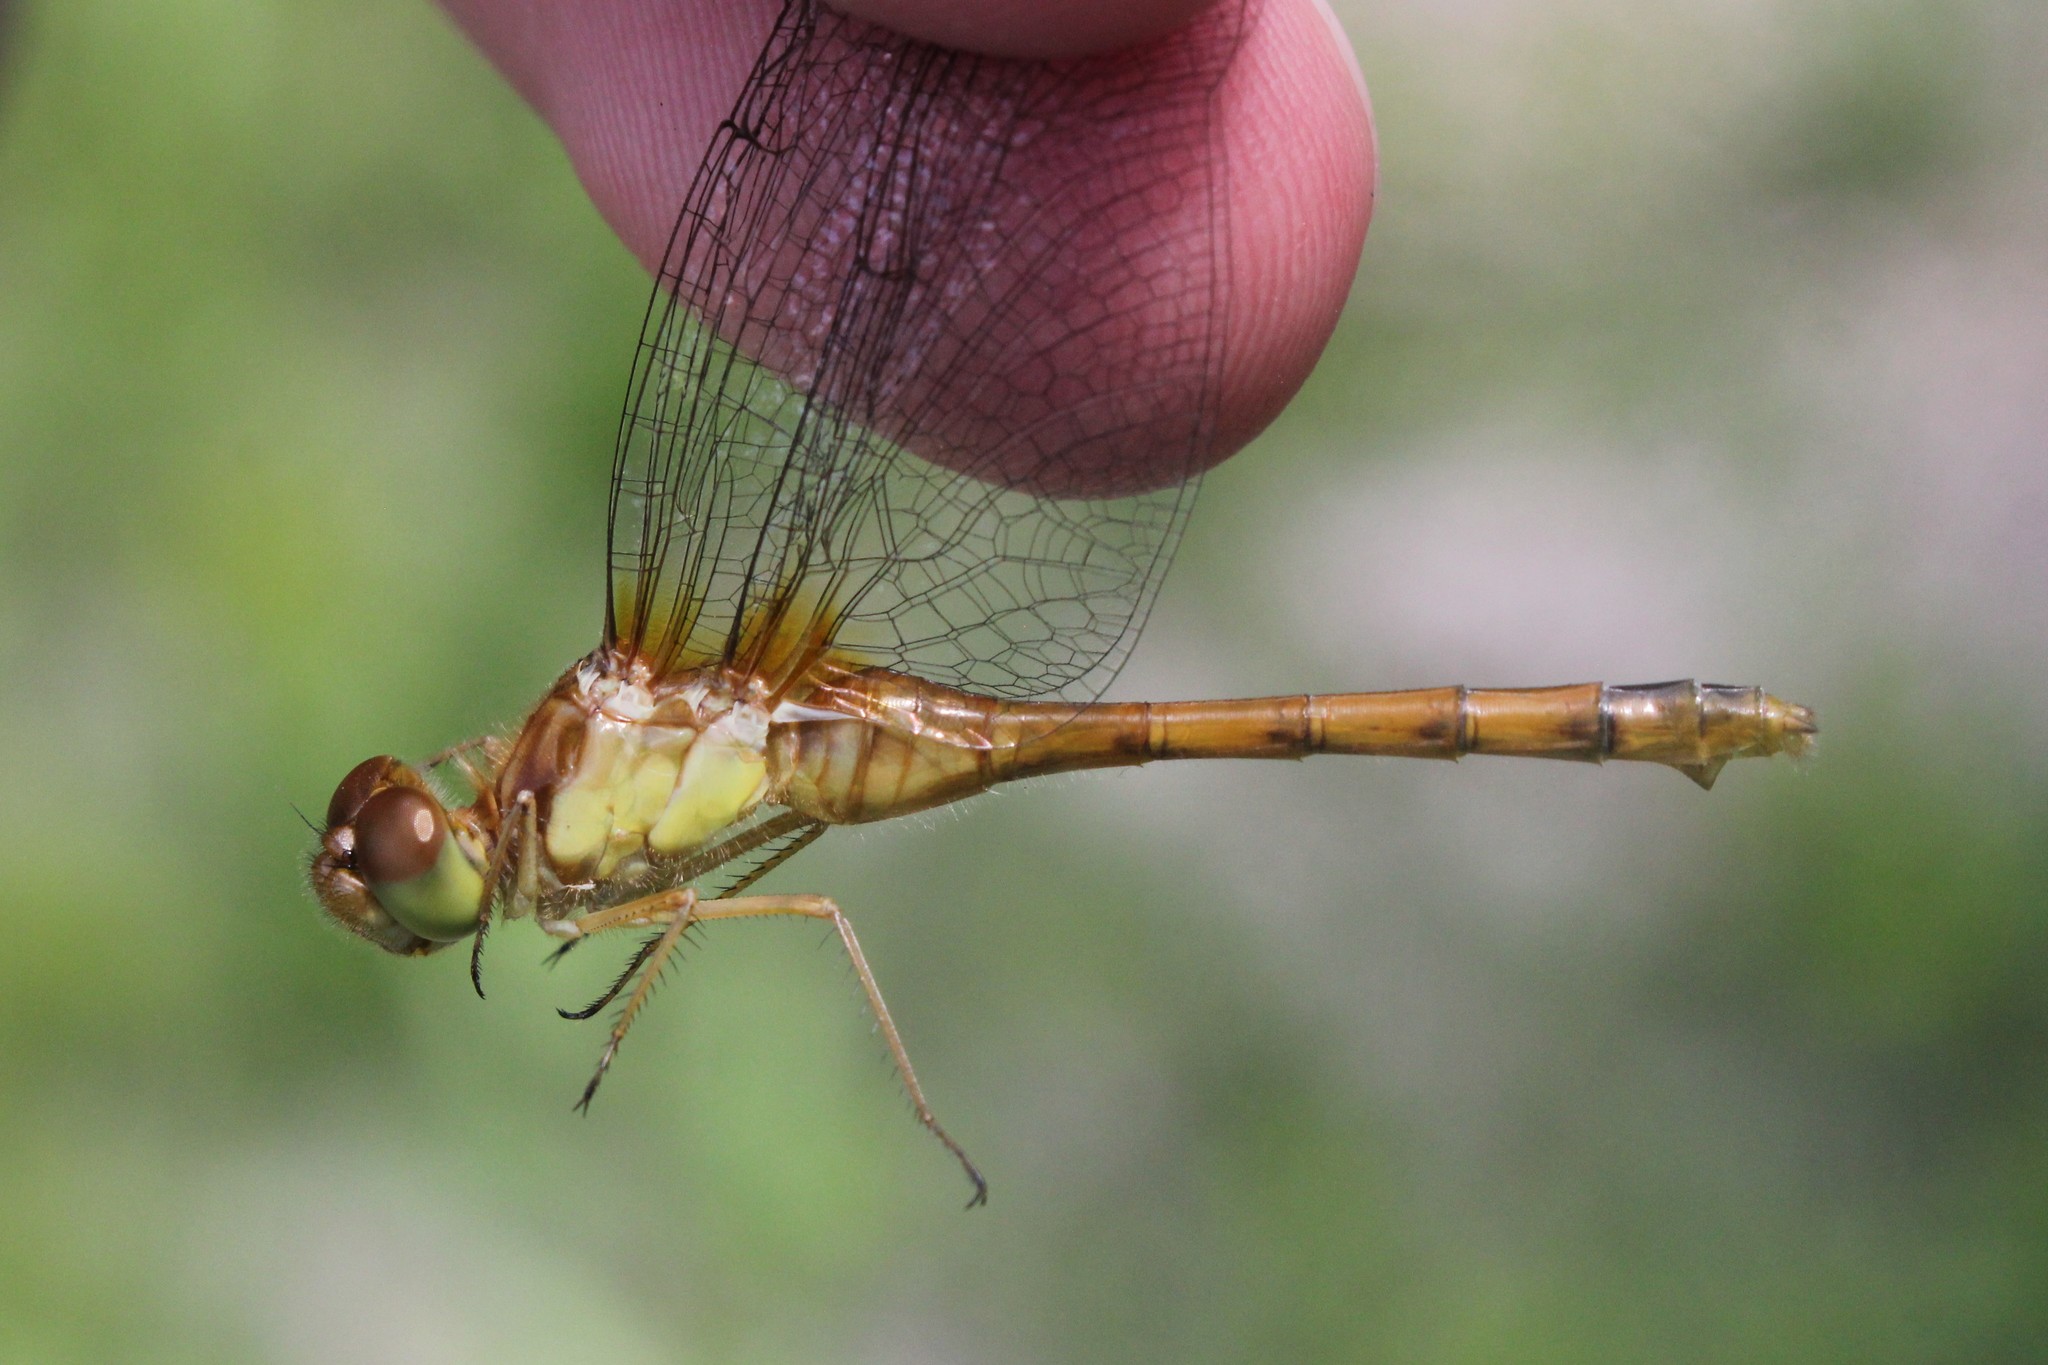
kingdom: Animalia
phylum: Arthropoda
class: Insecta
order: Odonata
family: Libellulidae
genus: Sympetrum
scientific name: Sympetrum vicinum
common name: Autumn meadowhawk
